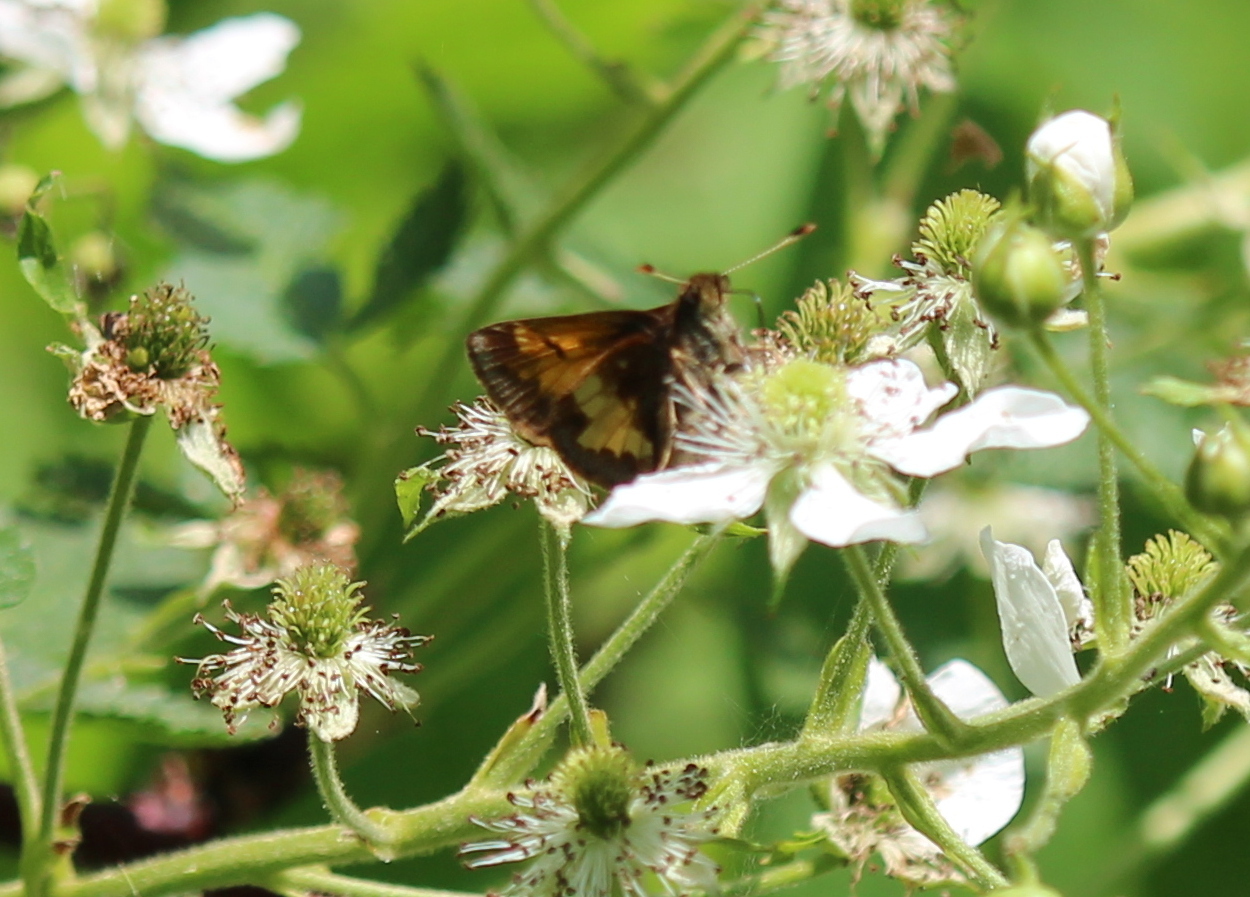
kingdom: Animalia
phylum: Arthropoda
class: Insecta
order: Lepidoptera
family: Hesperiidae
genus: Lon
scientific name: Lon hobomok
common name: Hobomok skipper
